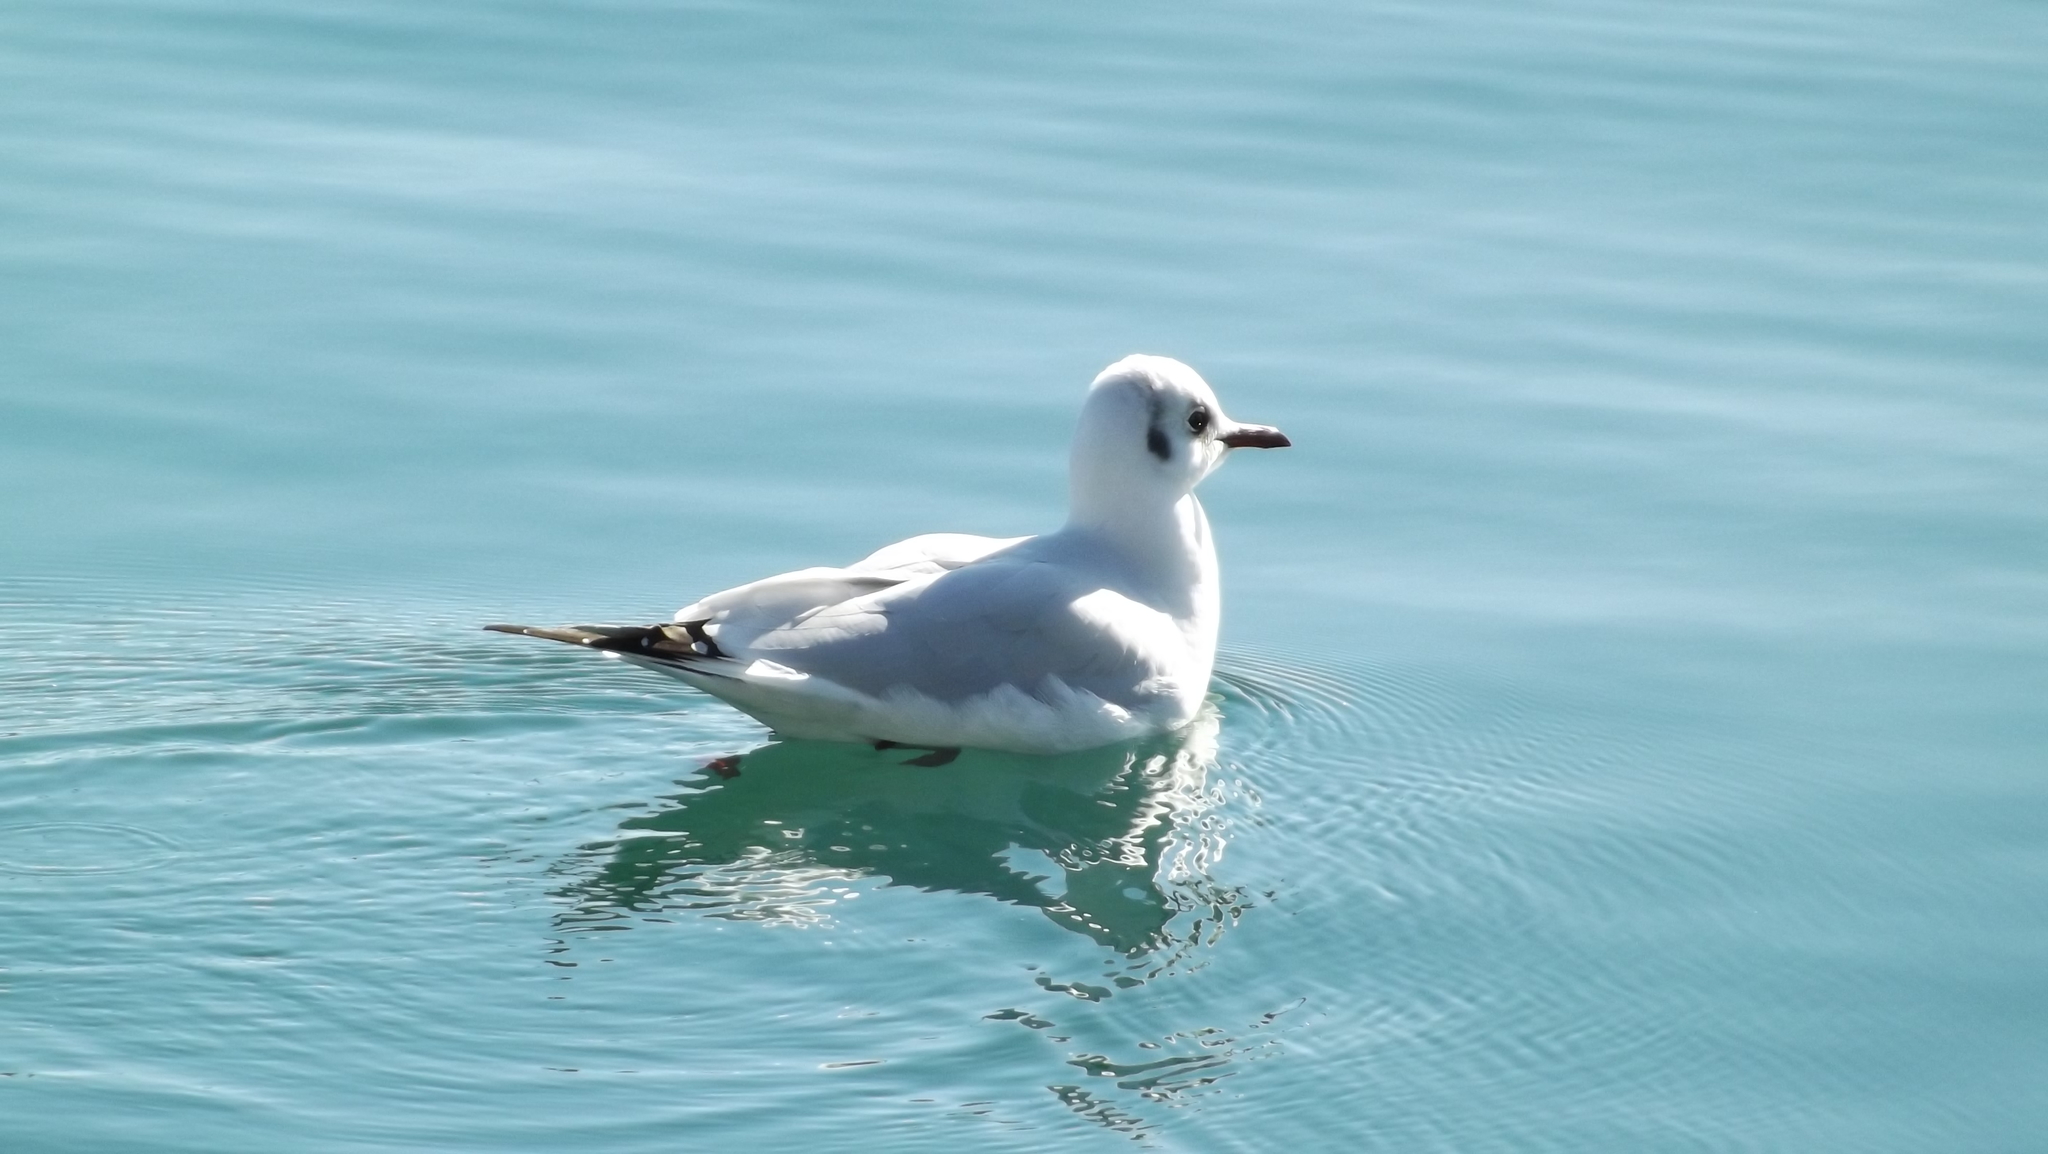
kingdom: Animalia
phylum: Chordata
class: Aves
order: Charadriiformes
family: Laridae
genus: Chroicocephalus
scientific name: Chroicocephalus ridibundus
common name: Black-headed gull
